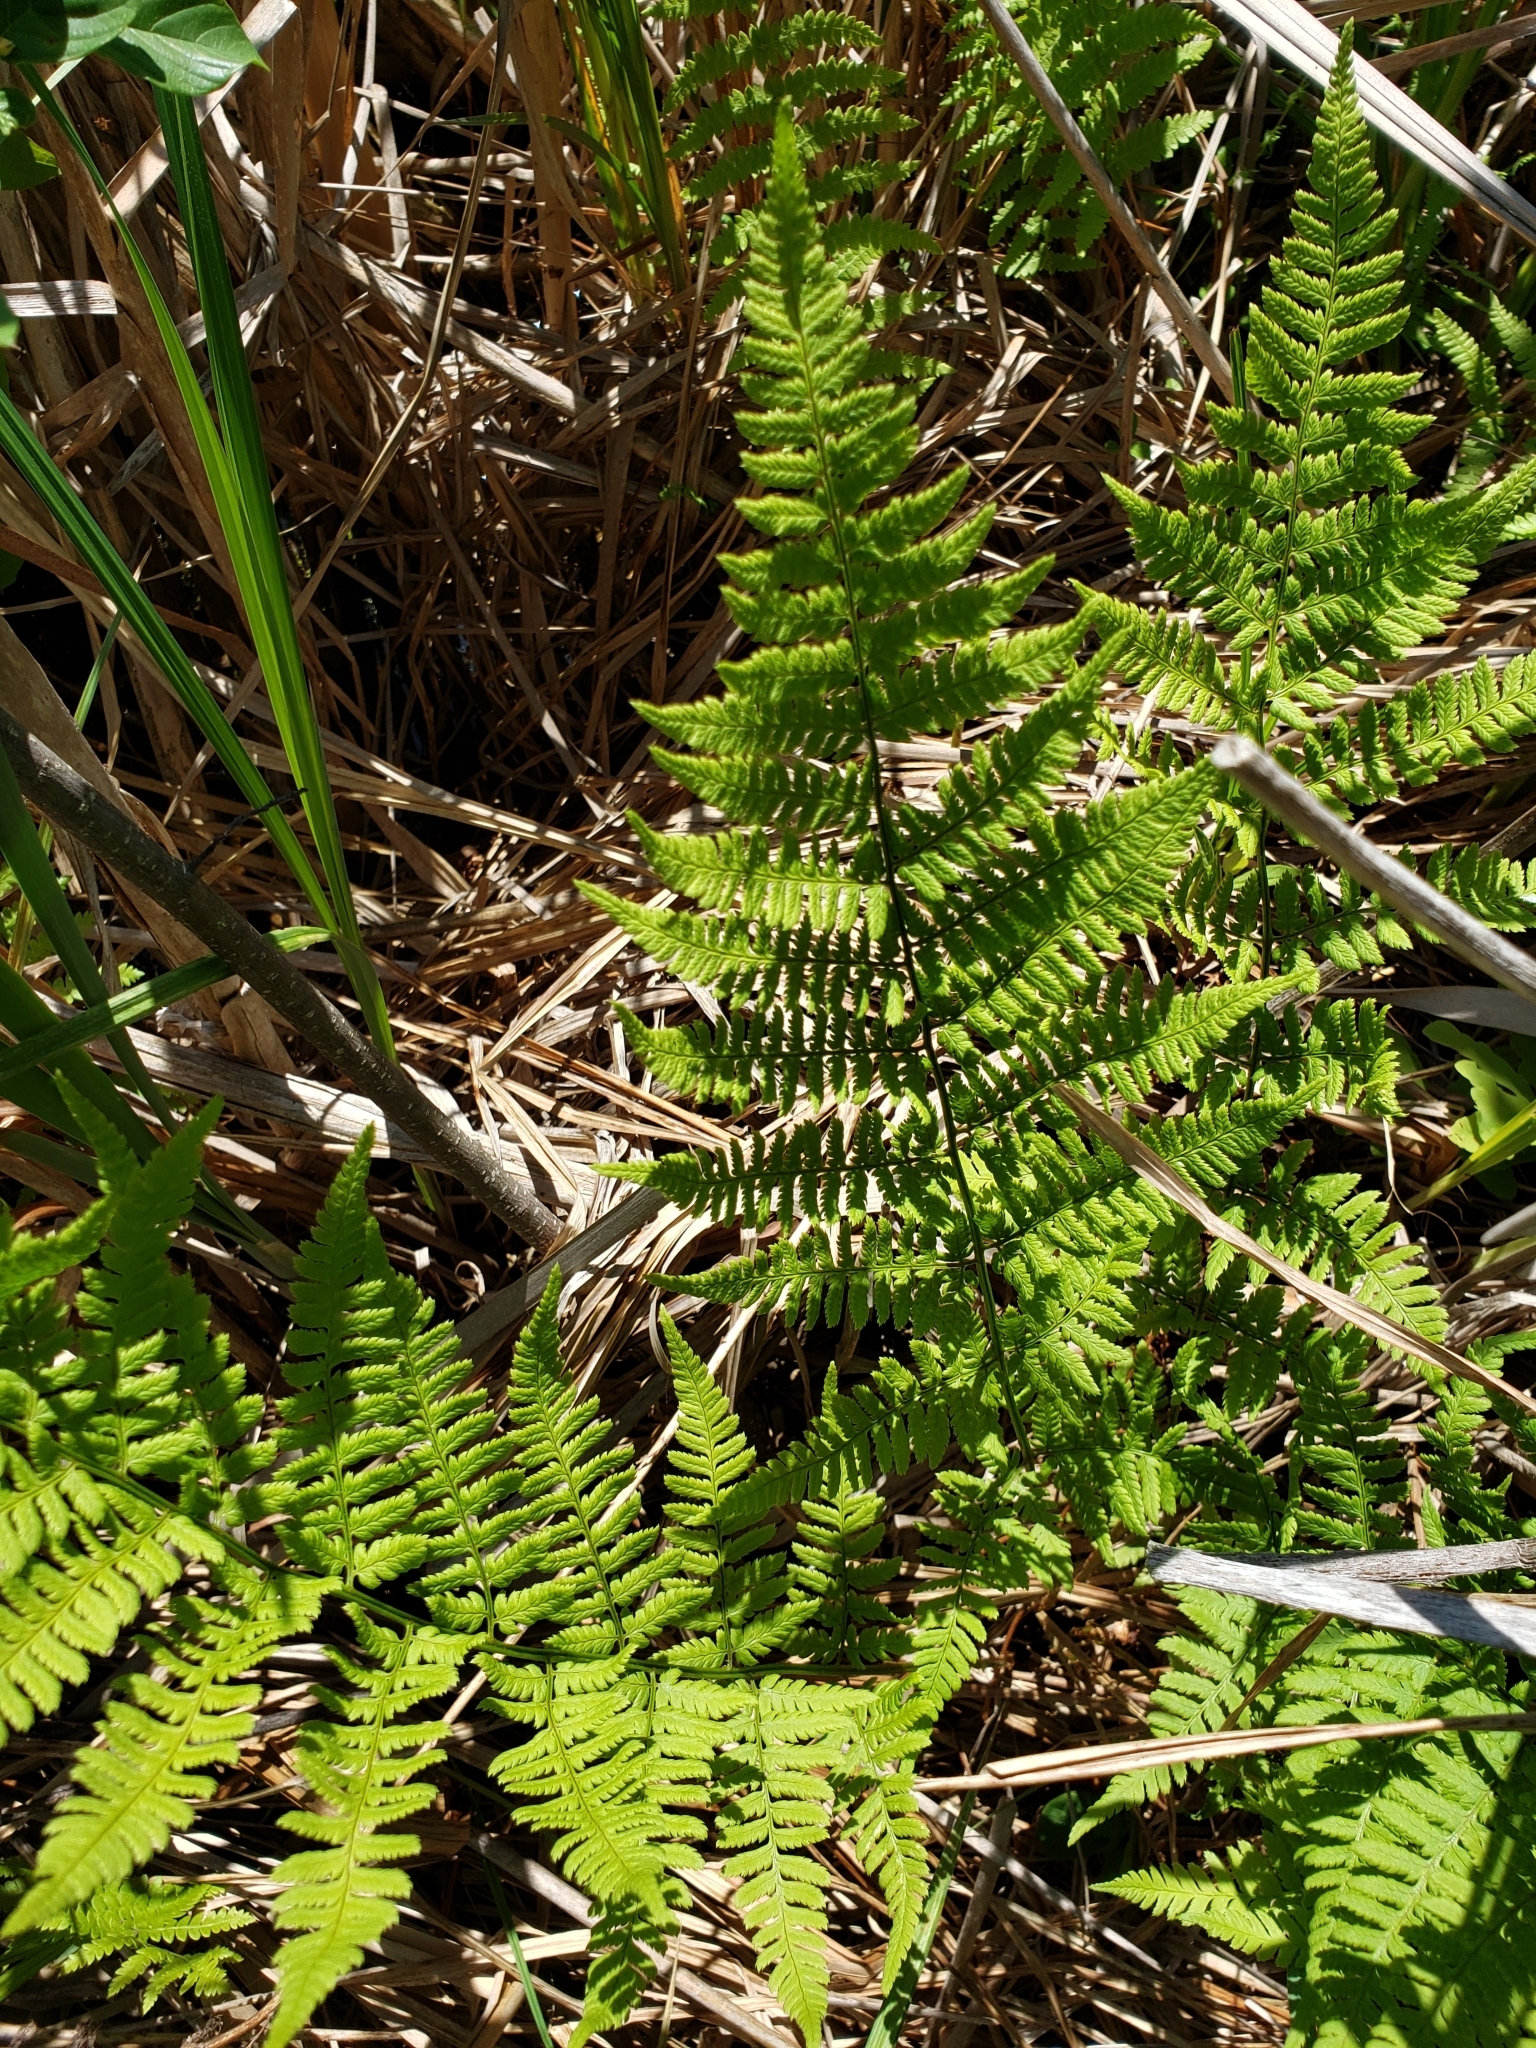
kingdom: Plantae
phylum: Tracheophyta
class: Polypodiopsida
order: Polypodiales
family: Dryopteridaceae
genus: Dryopteris
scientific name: Dryopteris carthusiana
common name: Narrow buckler-fern
